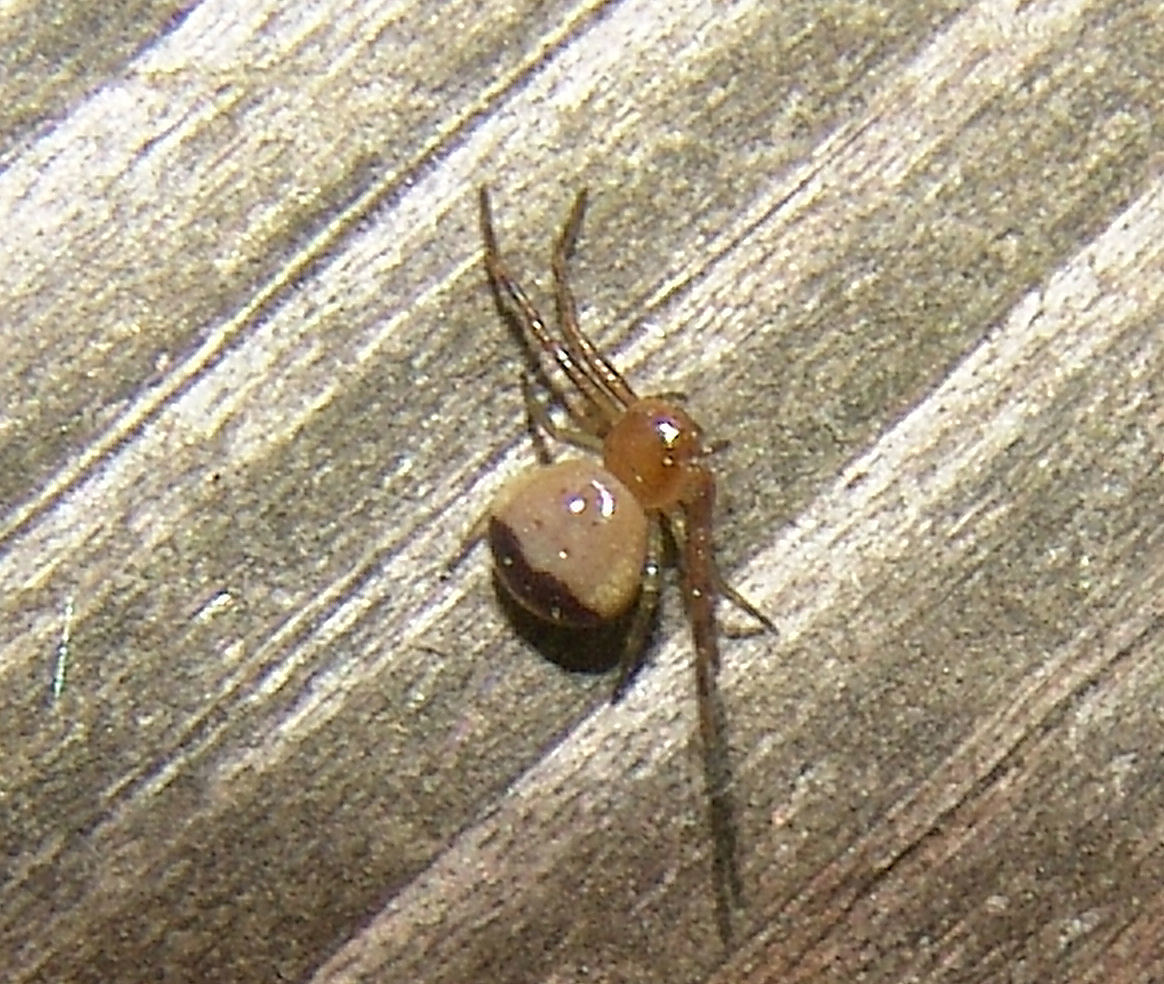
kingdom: Animalia
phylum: Arthropoda
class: Arachnida
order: Araneae
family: Thomisidae
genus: Synema
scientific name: Synema parvulum
